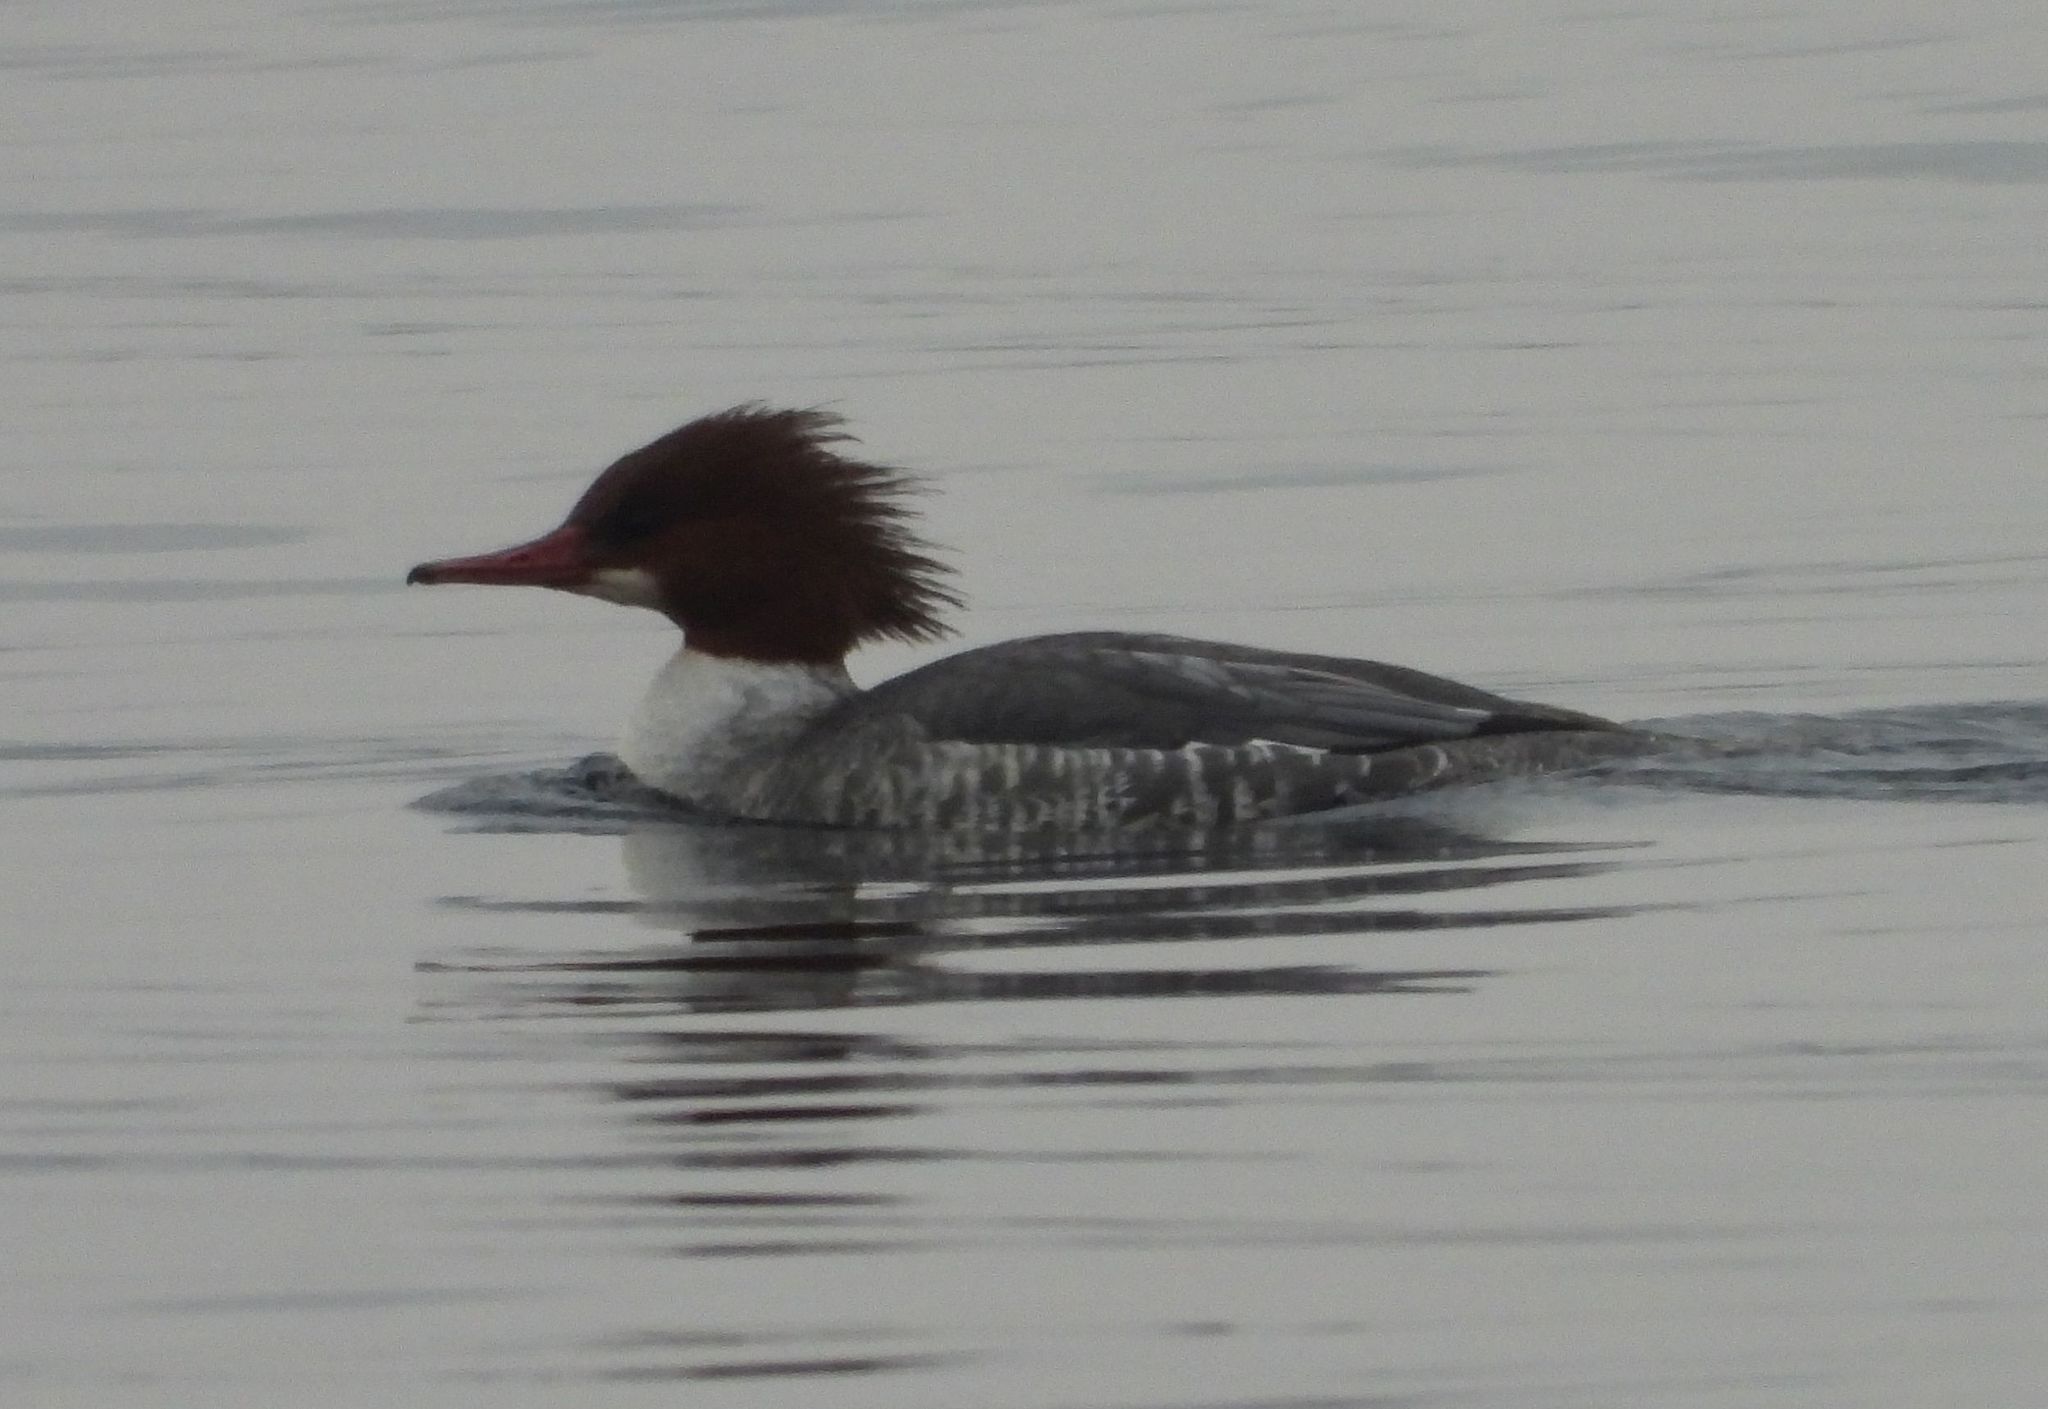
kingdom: Animalia
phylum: Chordata
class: Aves
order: Anseriformes
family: Anatidae
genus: Mergus
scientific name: Mergus merganser
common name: Common merganser
